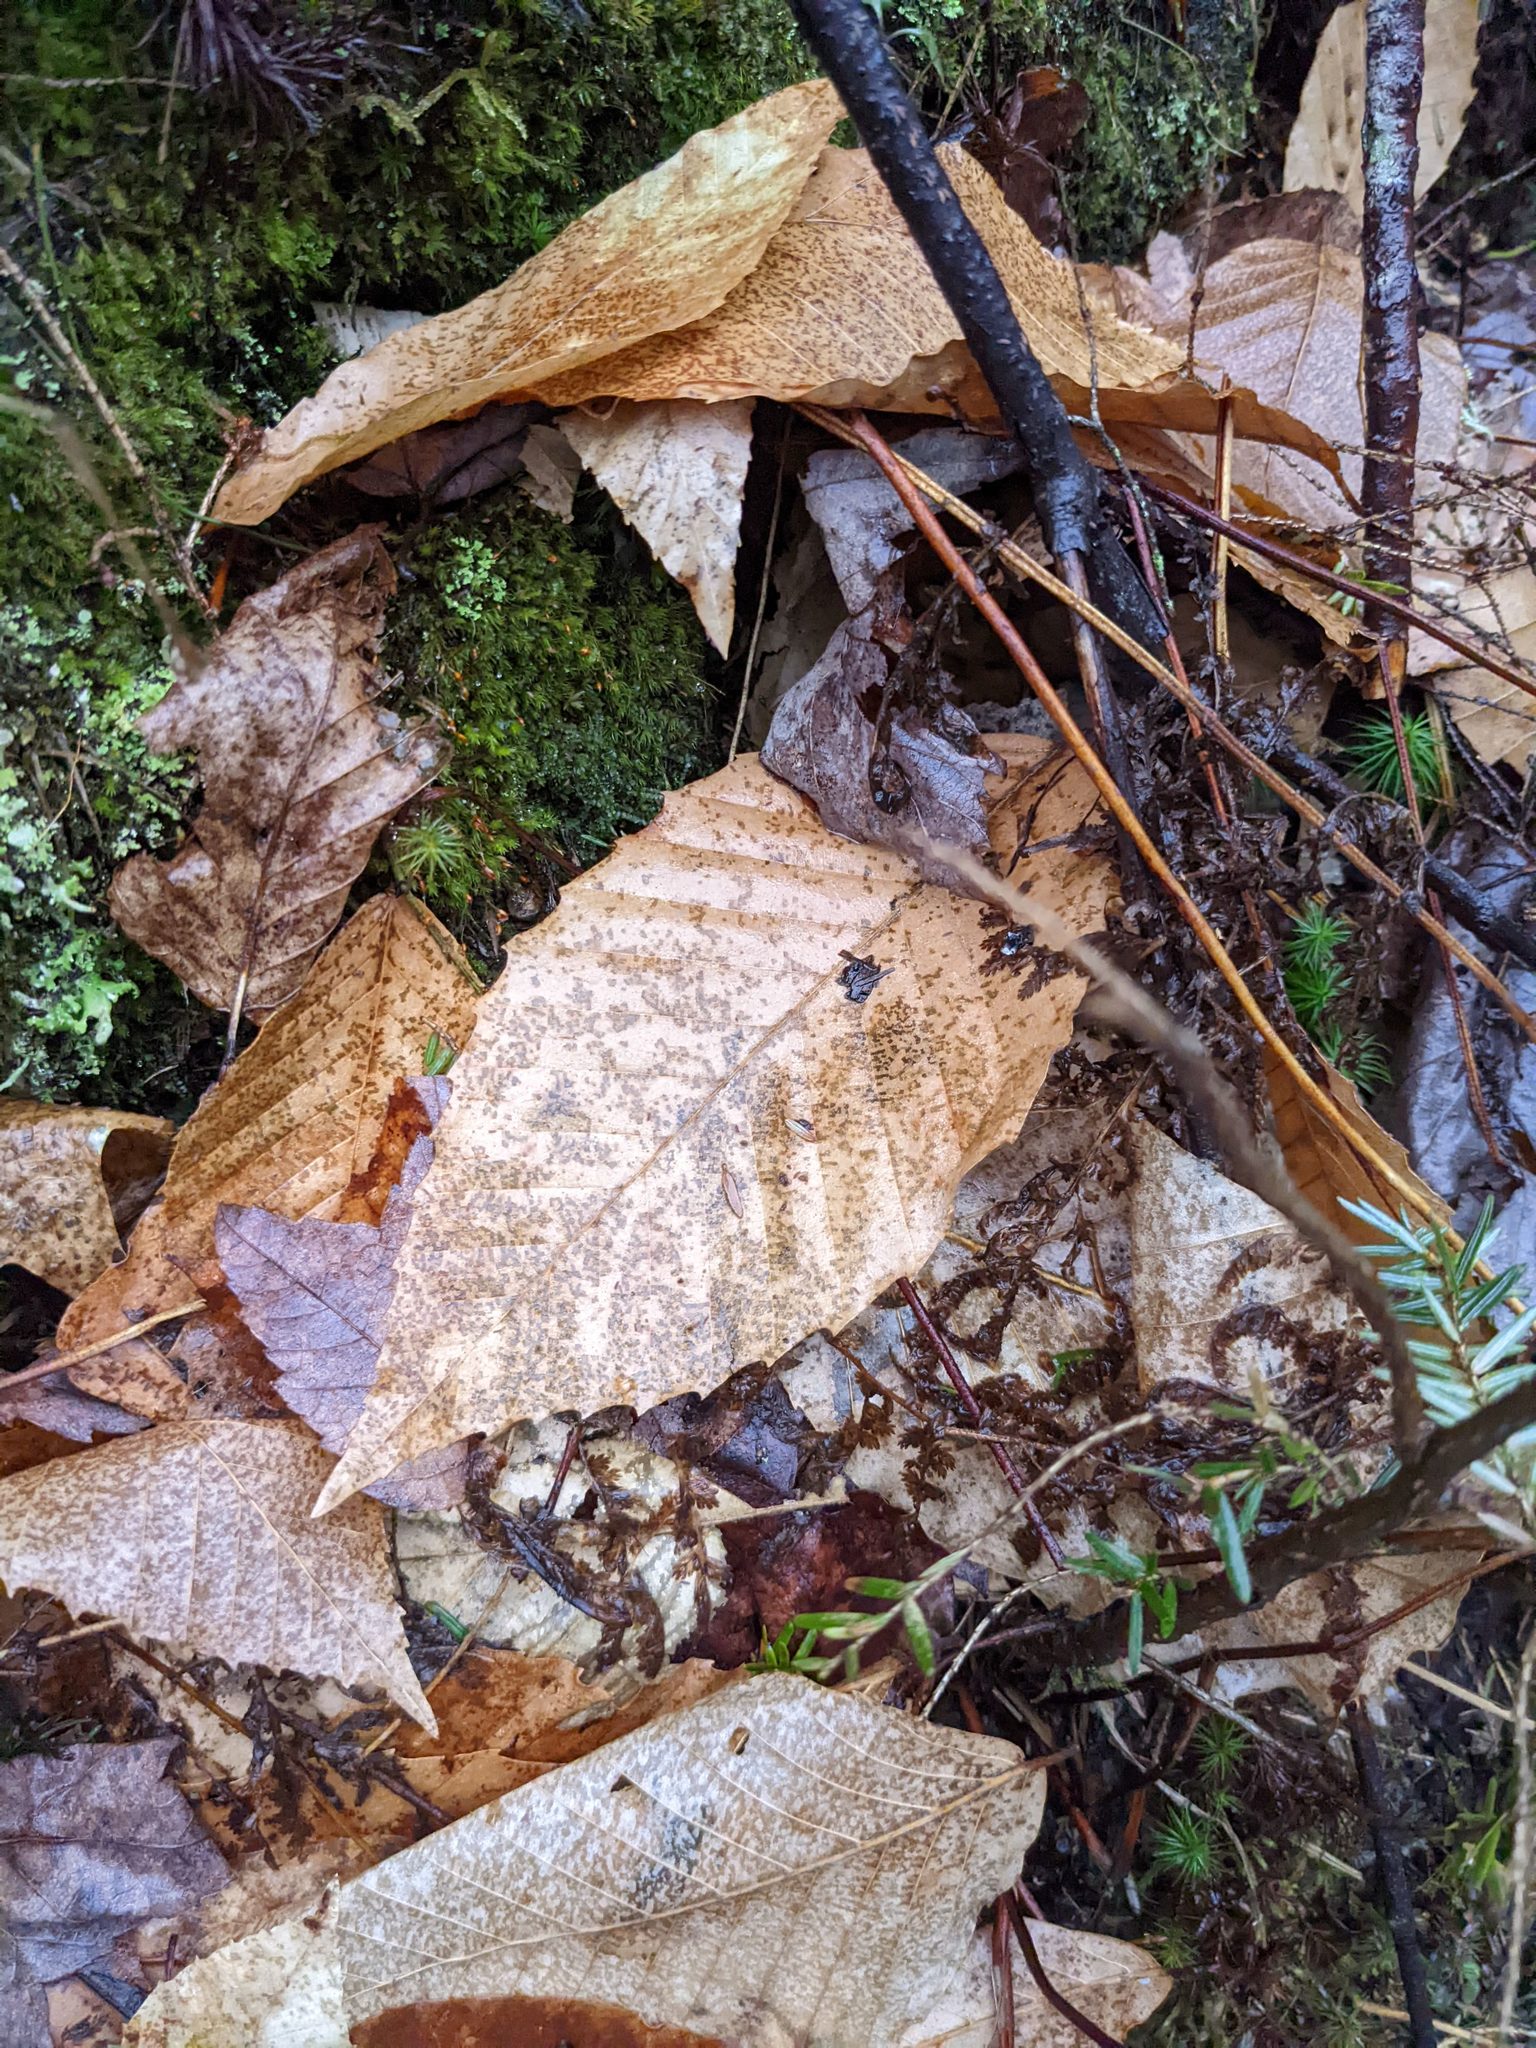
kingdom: Plantae
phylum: Tracheophyta
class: Magnoliopsida
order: Fagales
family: Fagaceae
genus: Fagus
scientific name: Fagus grandifolia
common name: American beech
